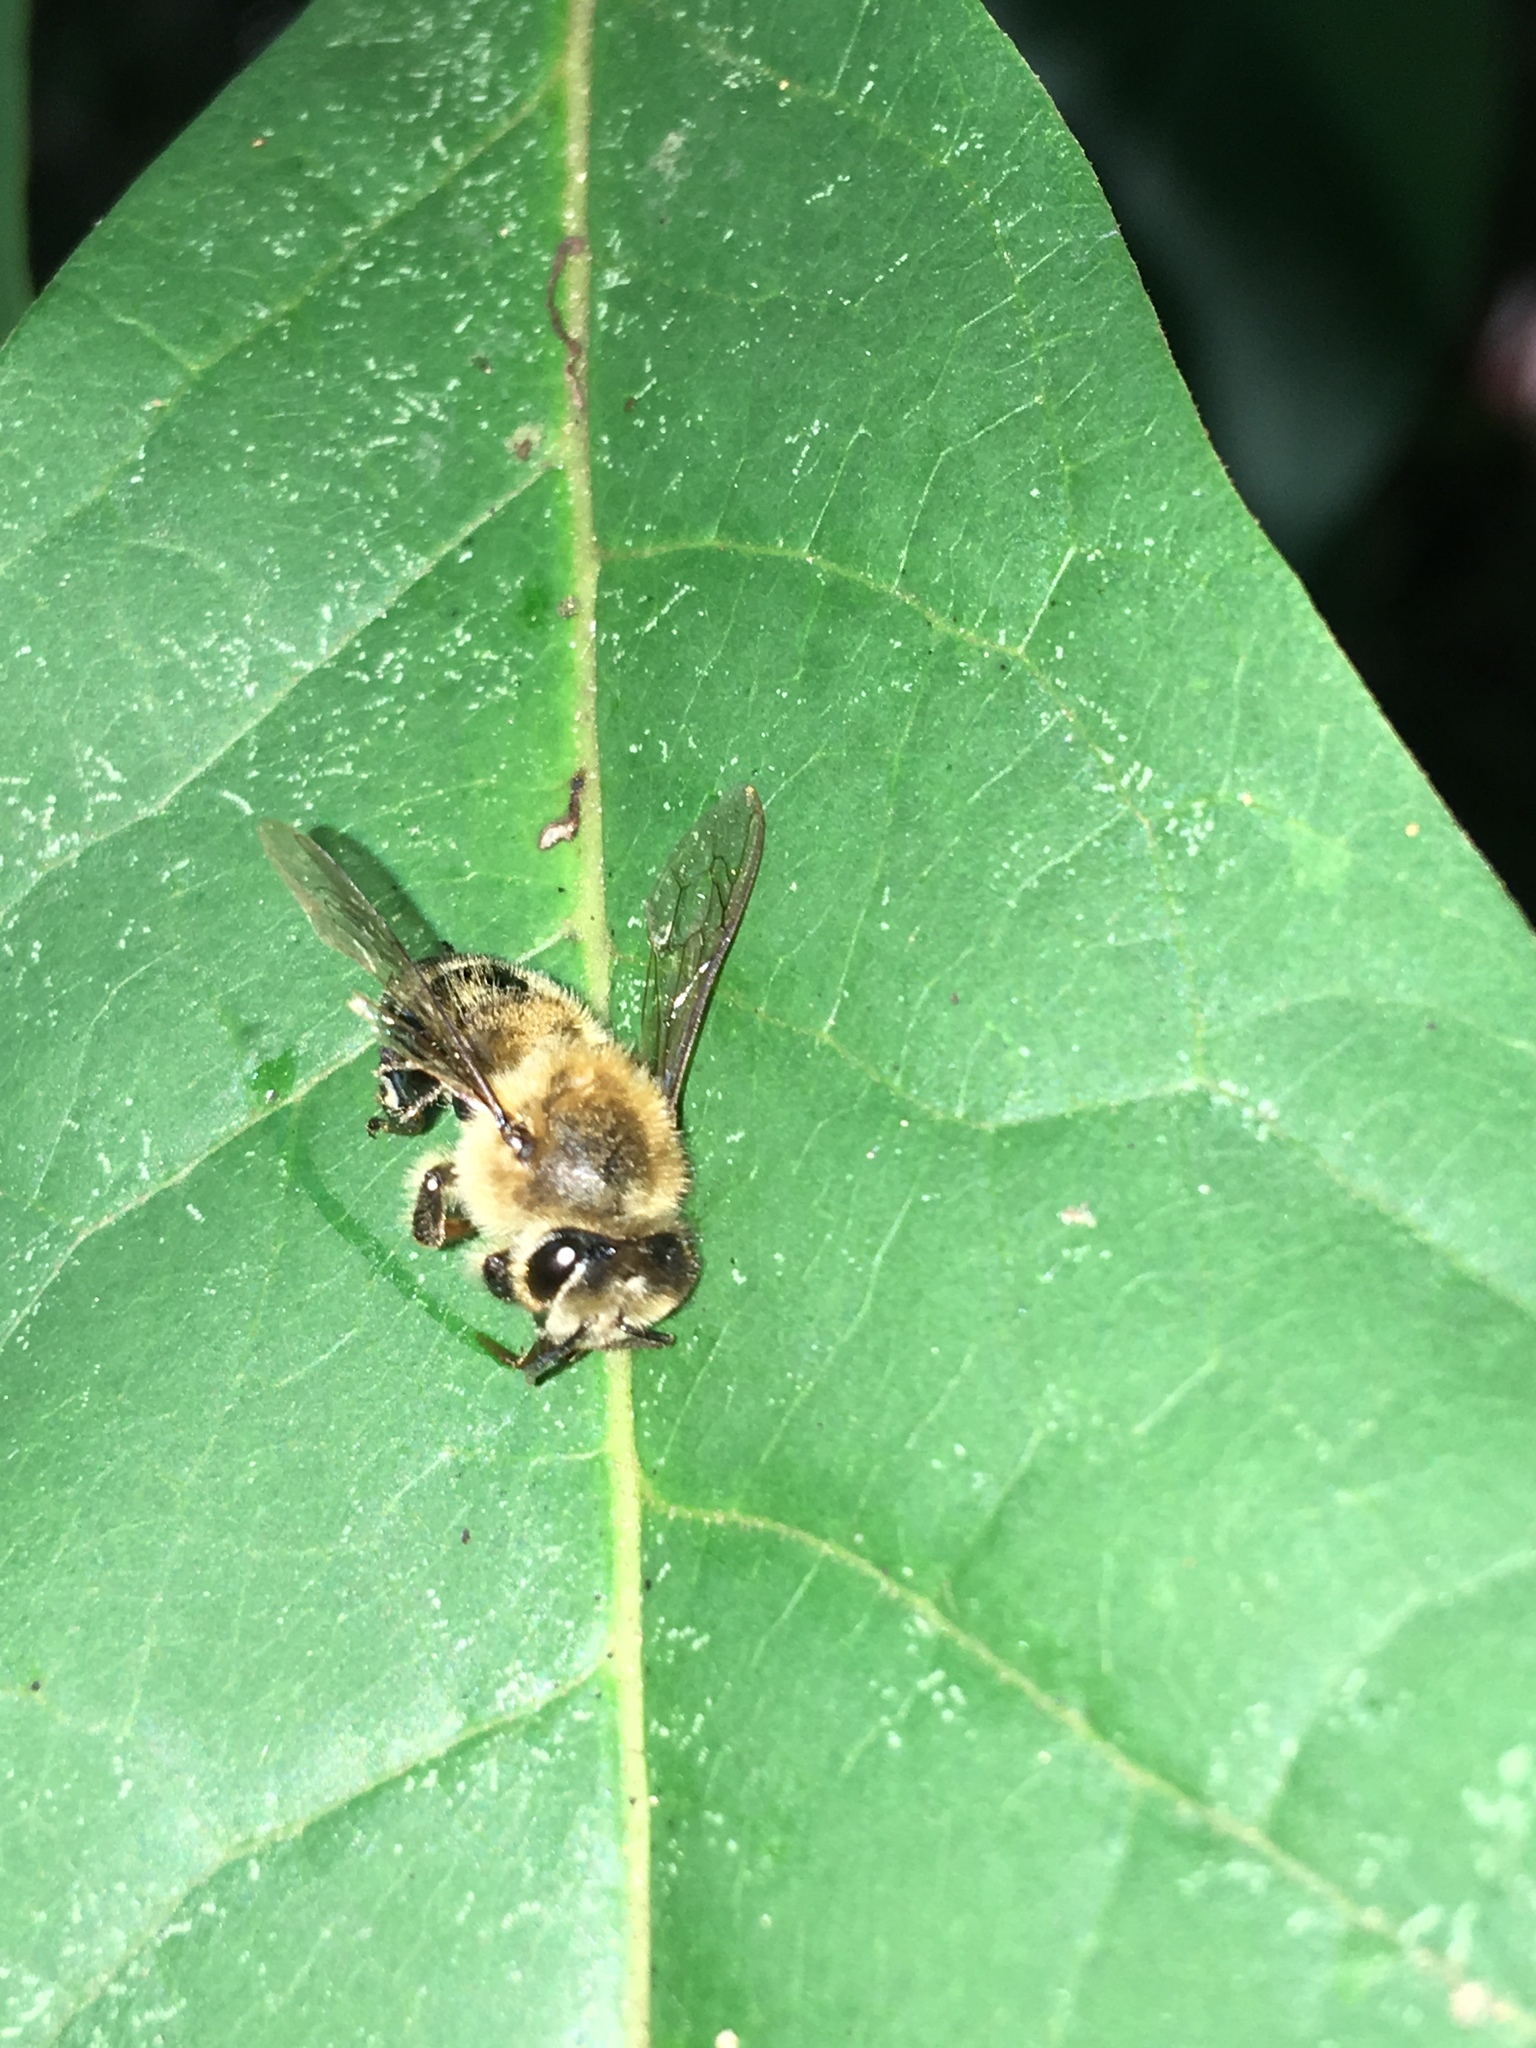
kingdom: Animalia
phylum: Arthropoda
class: Insecta
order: Hymenoptera
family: Apidae
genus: Apis
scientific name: Apis mellifera
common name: Honey bee
